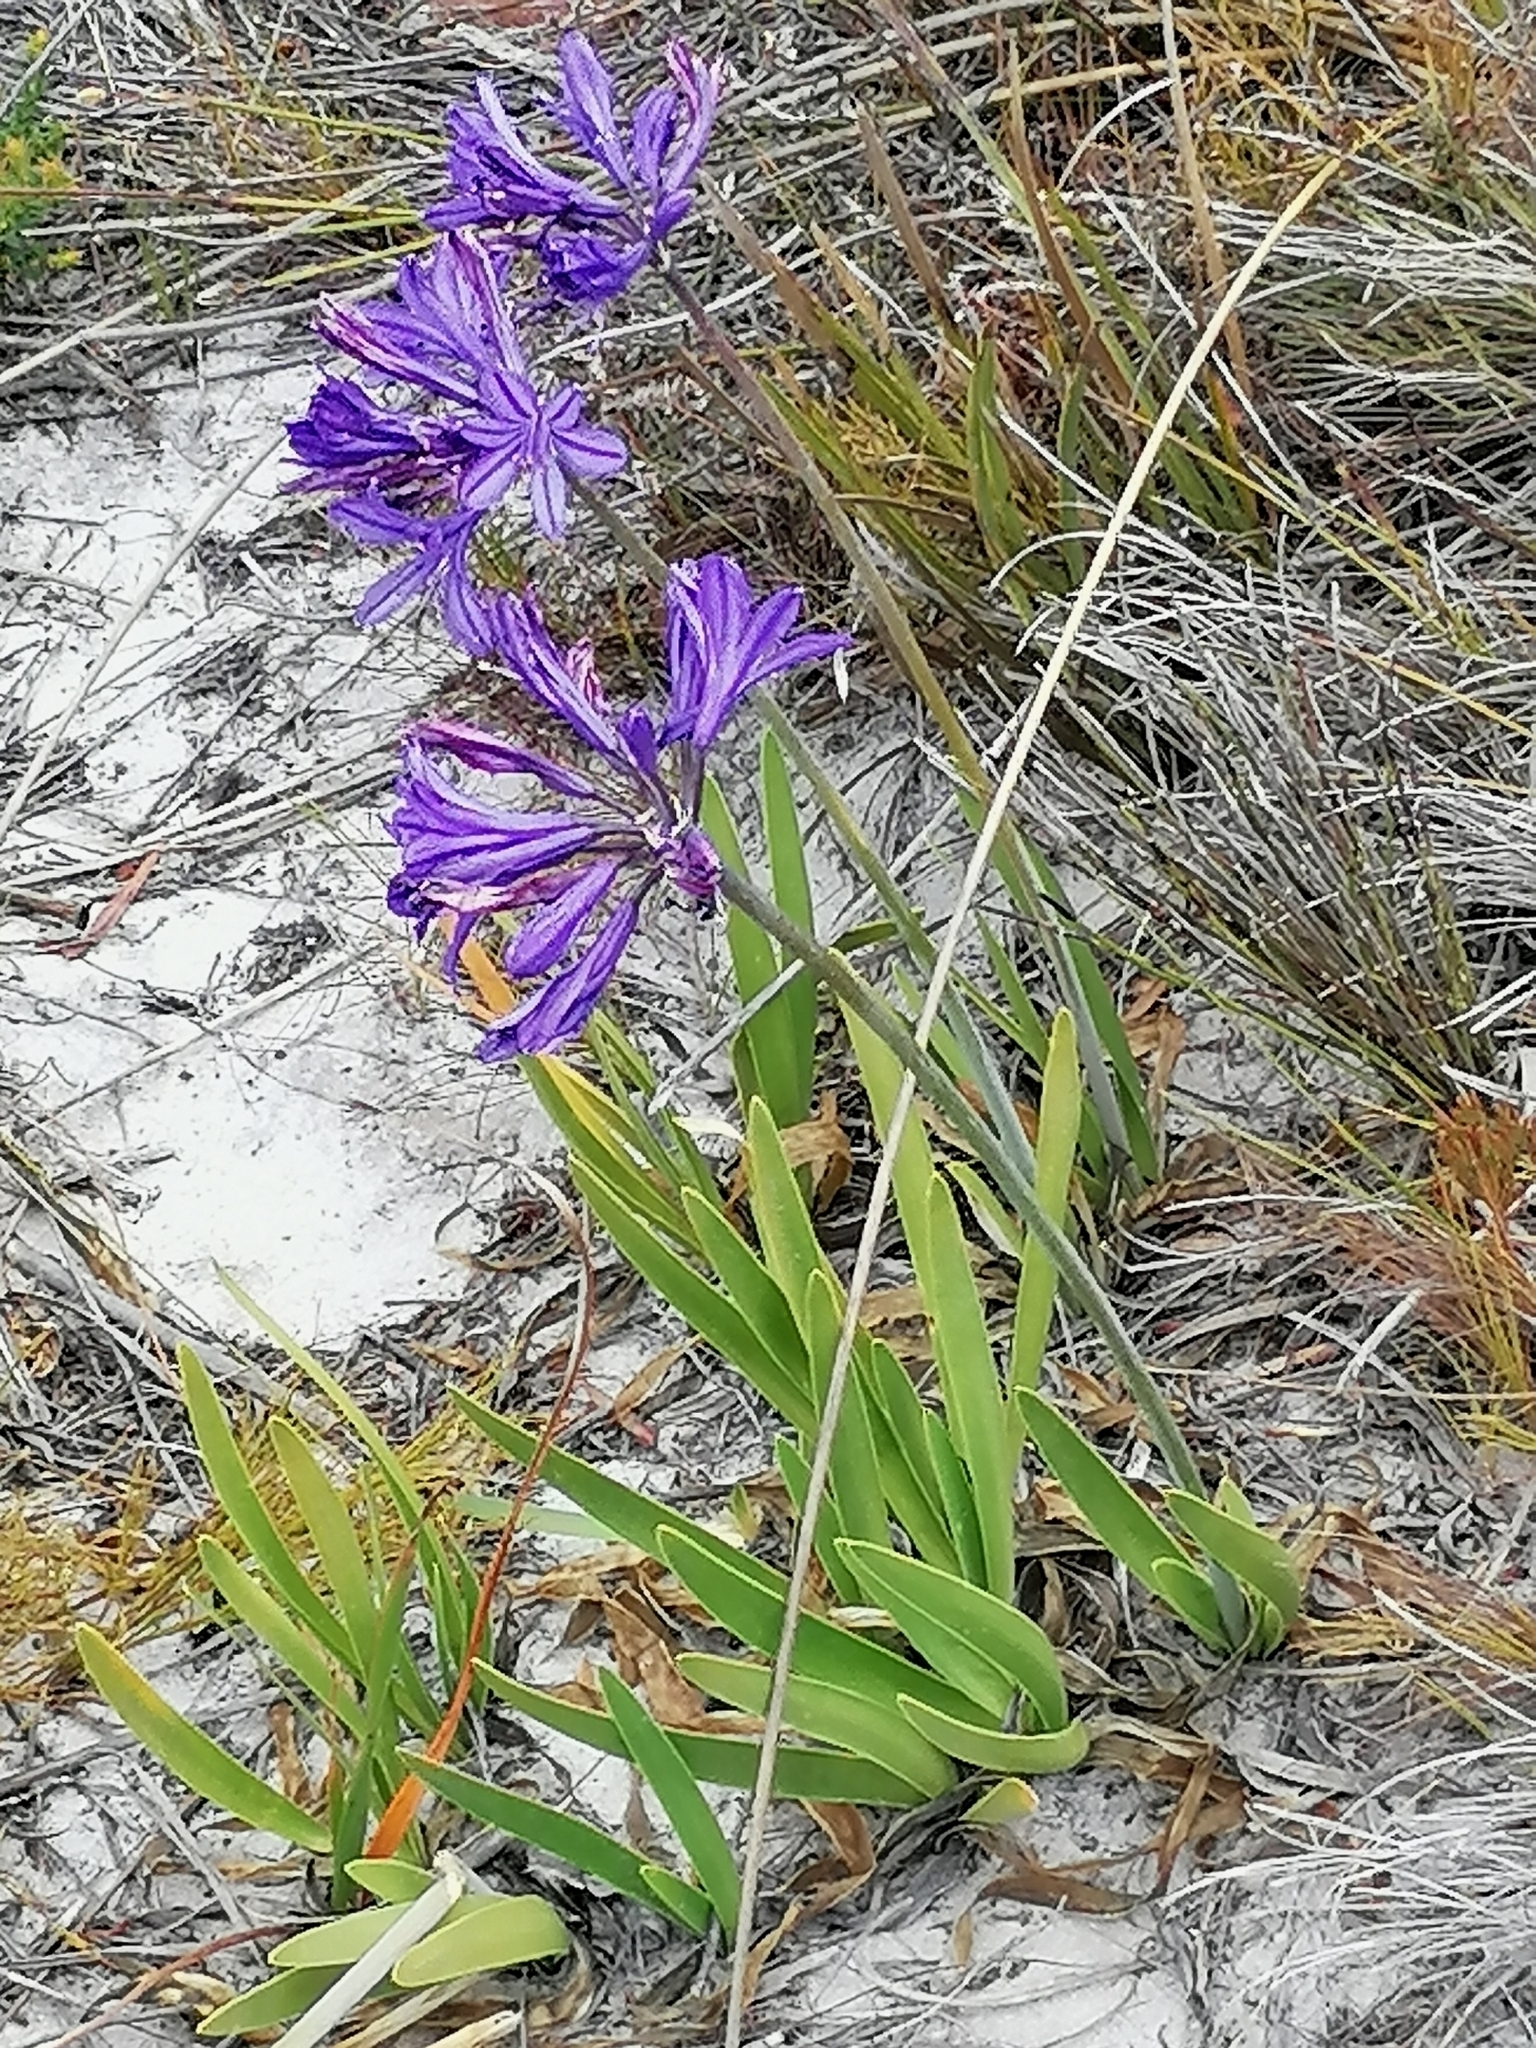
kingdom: Plantae
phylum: Tracheophyta
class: Liliopsida
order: Asparagales
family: Amaryllidaceae
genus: Agapanthus
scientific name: Agapanthus africanus
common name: Lily-of-the-nile
